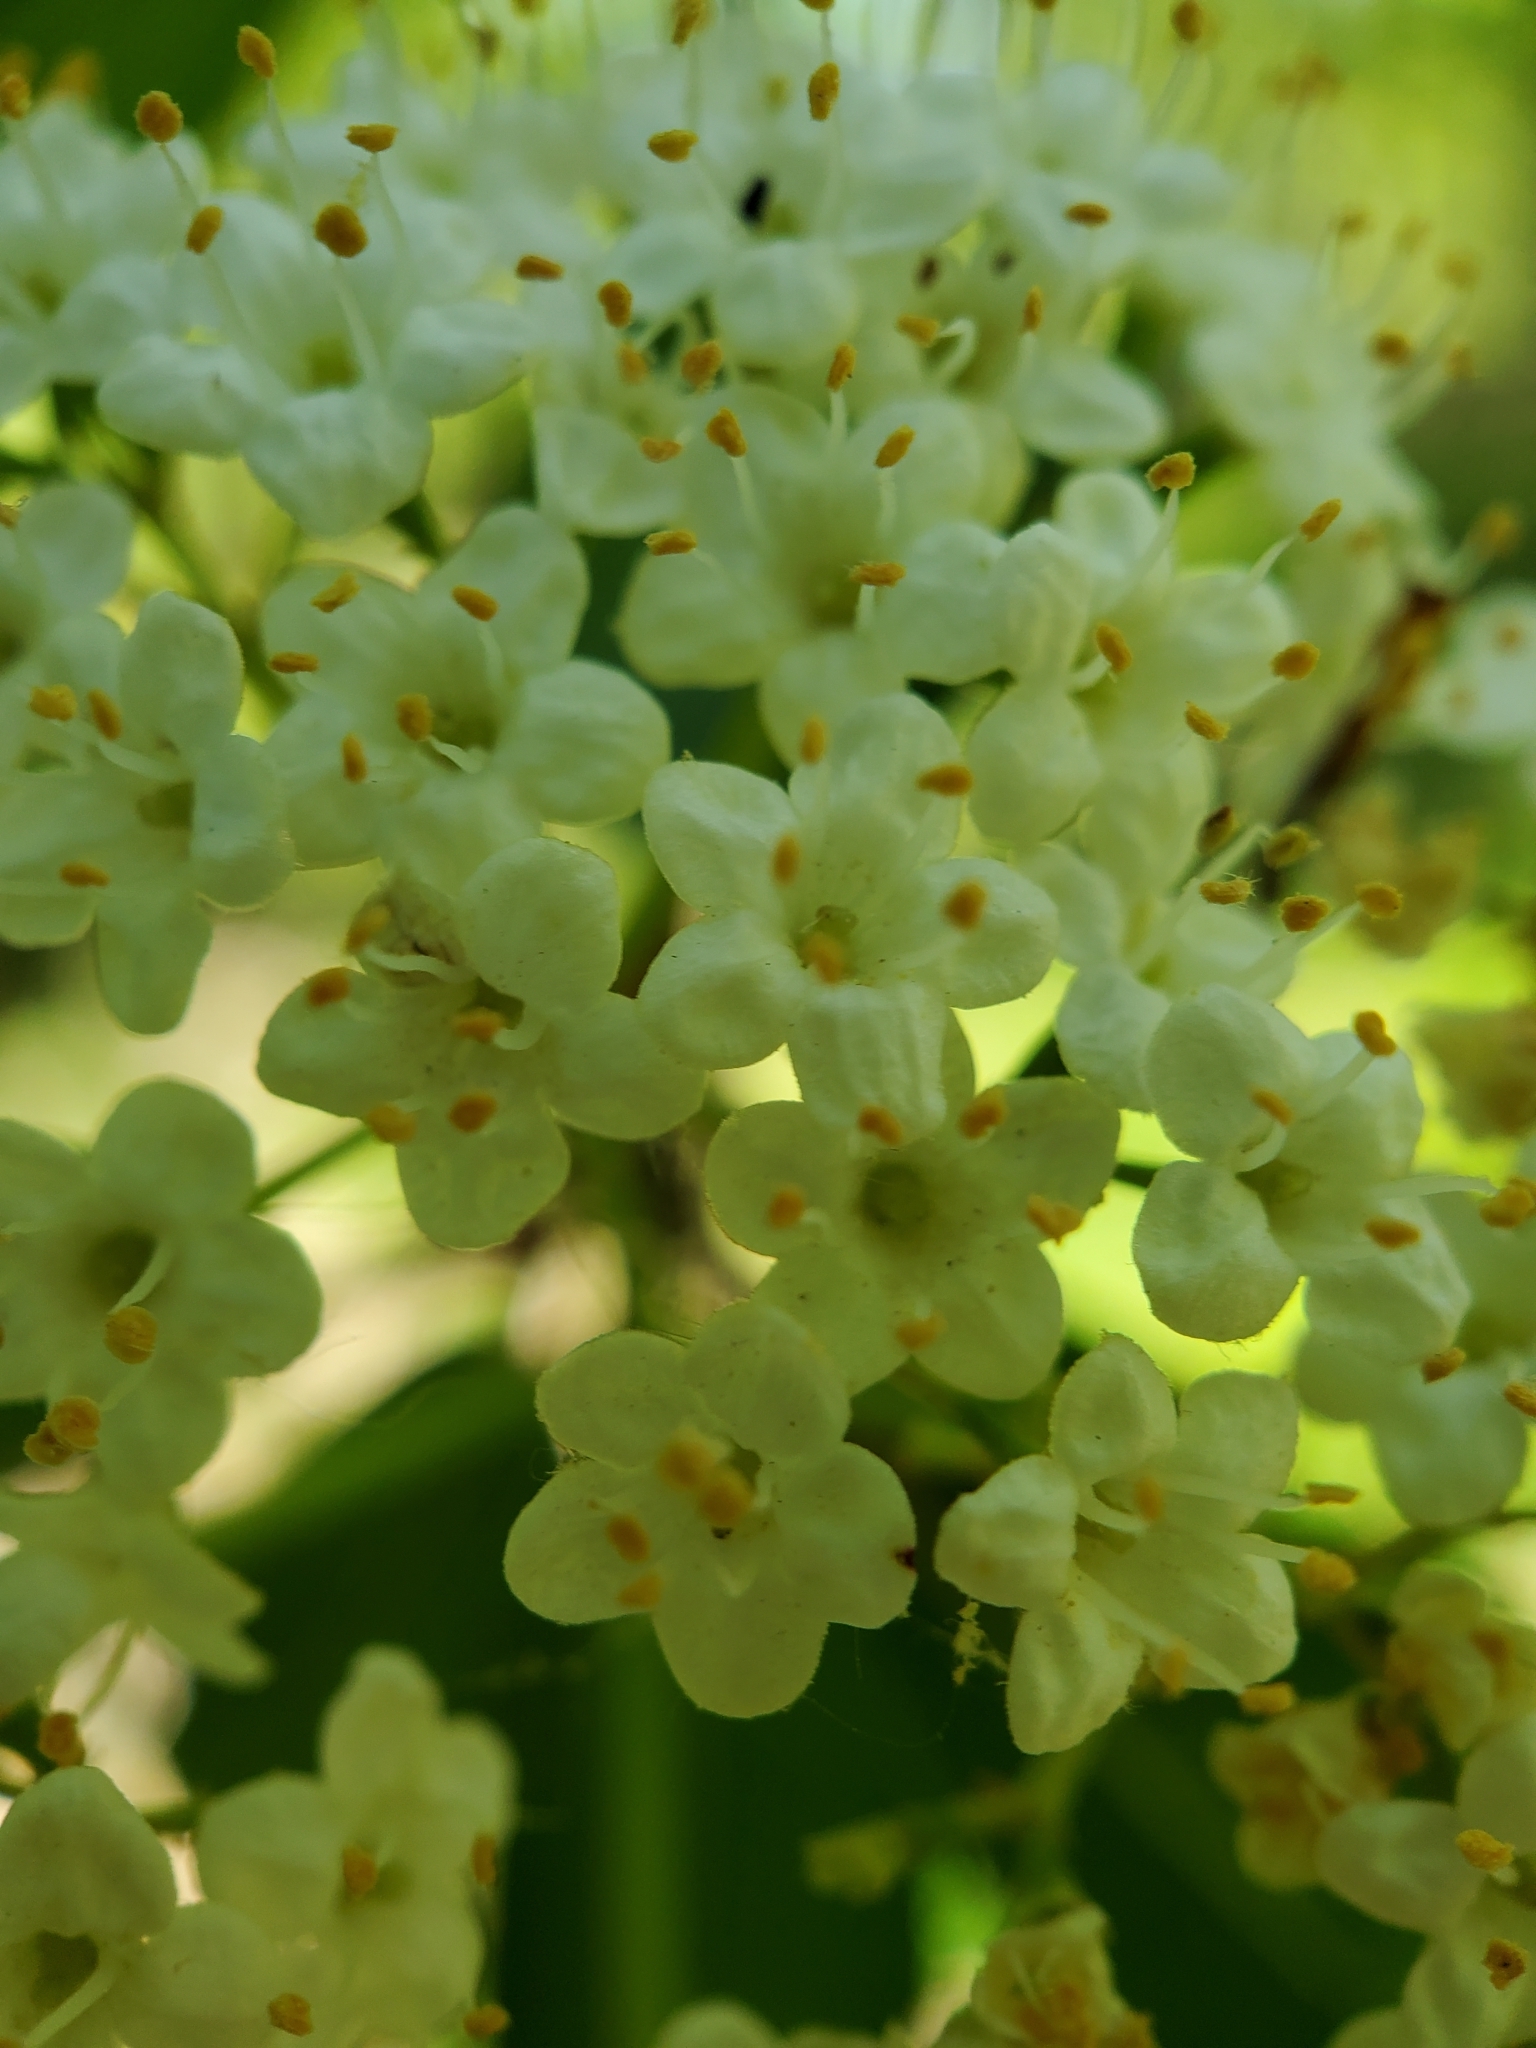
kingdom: Plantae
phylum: Tracheophyta
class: Magnoliopsida
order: Dipsacales
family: Viburnaceae
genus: Viburnum
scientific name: Viburnum
